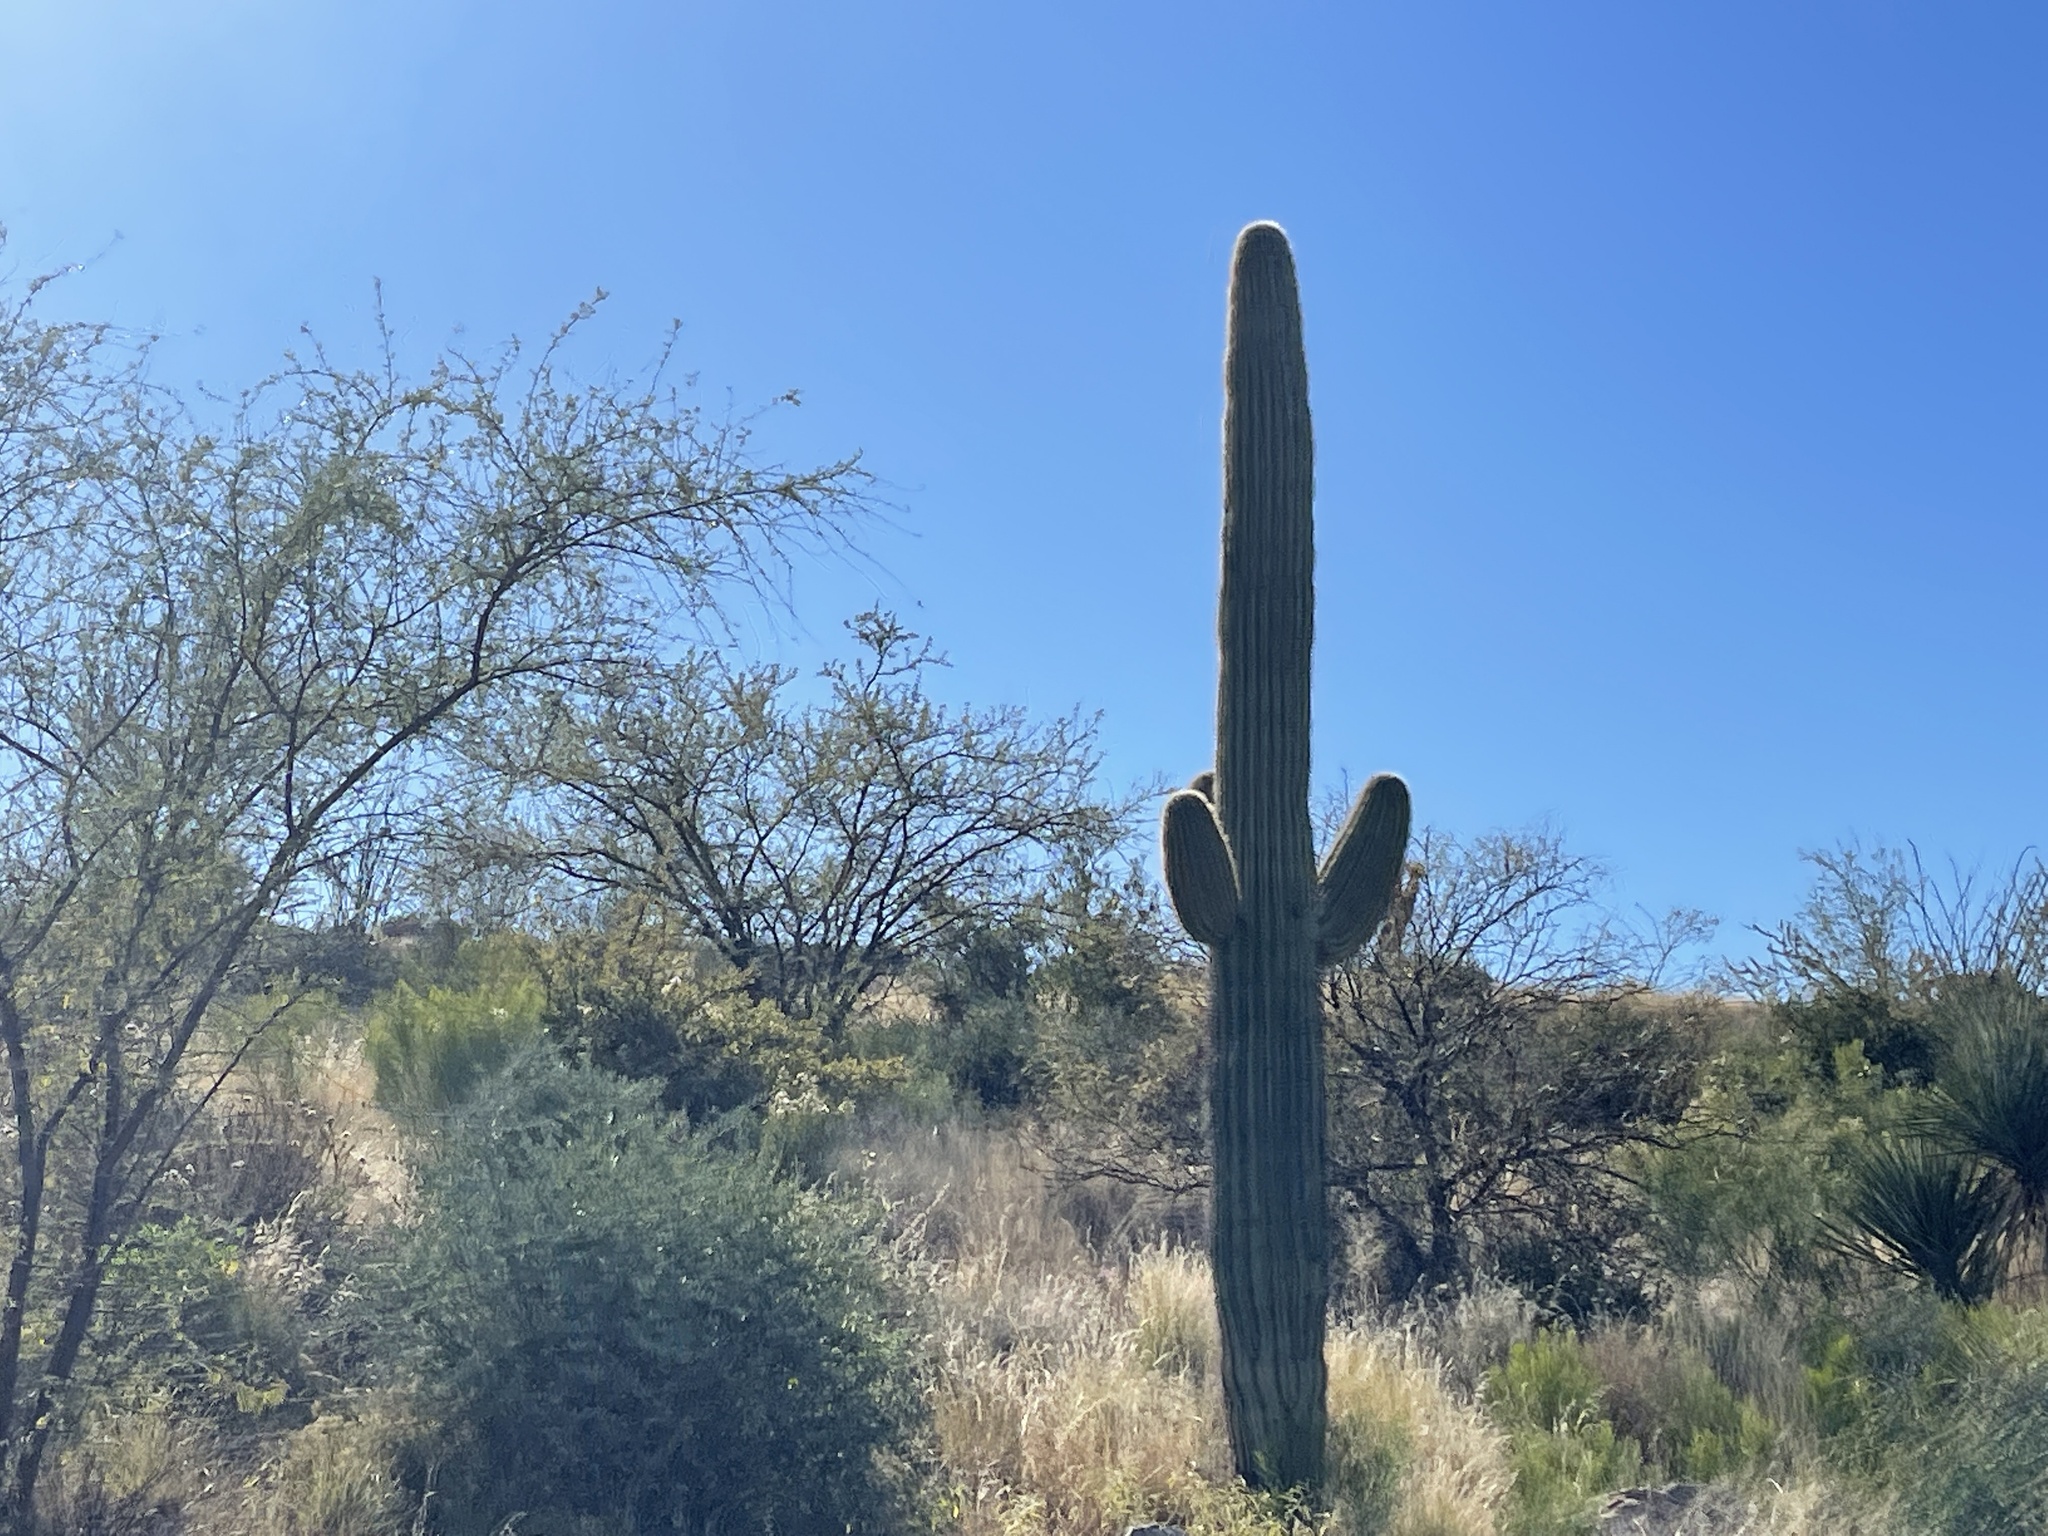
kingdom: Plantae
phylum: Tracheophyta
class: Magnoliopsida
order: Caryophyllales
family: Cactaceae
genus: Carnegiea
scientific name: Carnegiea gigantea
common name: Saguaro
